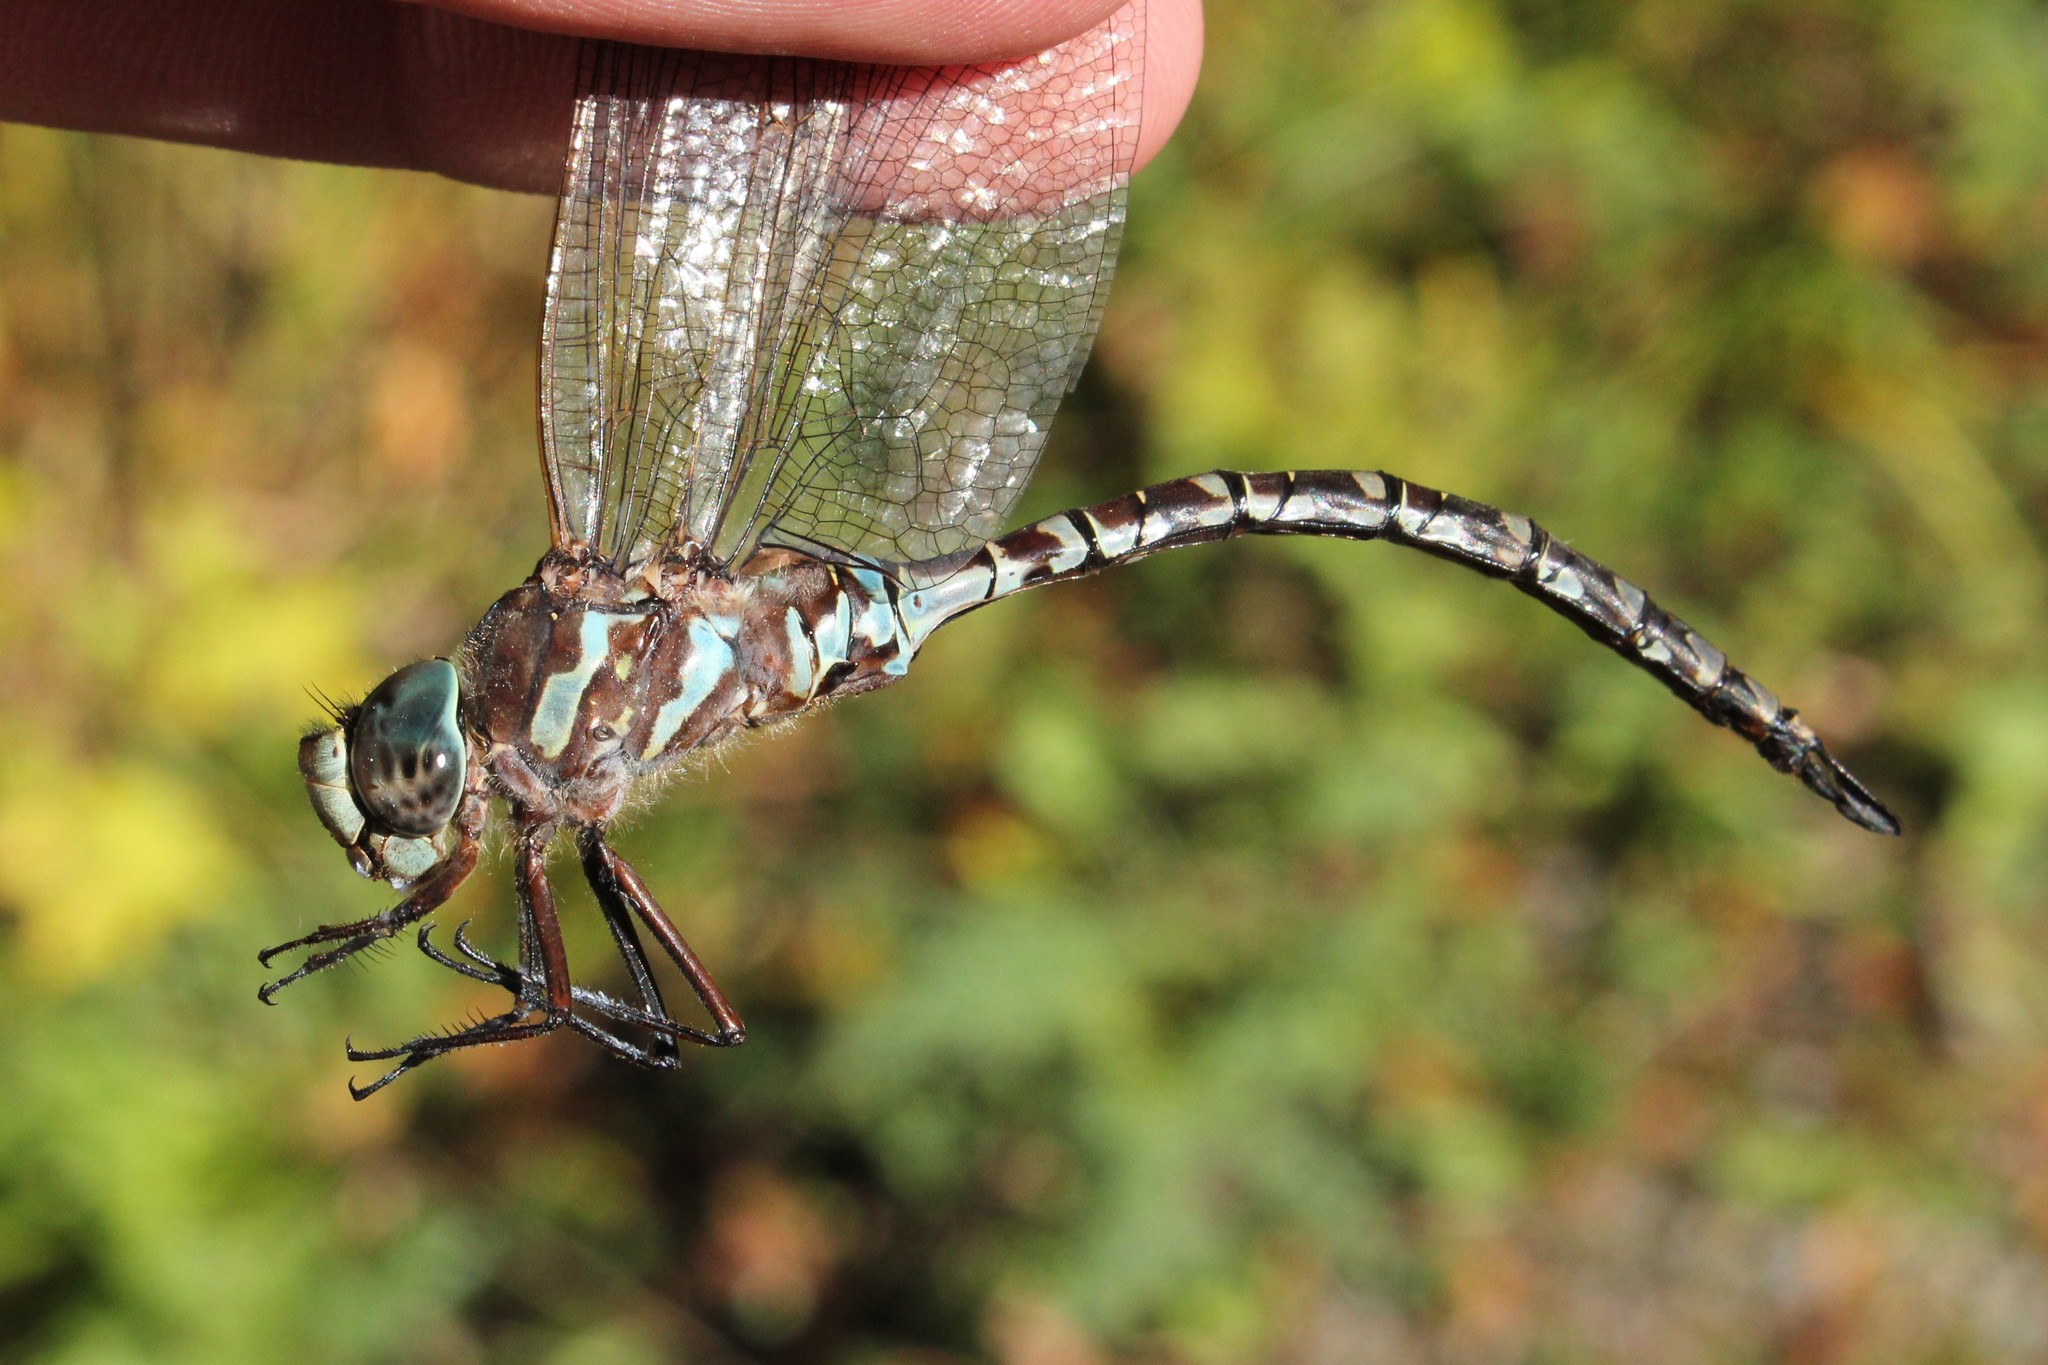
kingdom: Animalia
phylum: Arthropoda
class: Insecta
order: Odonata
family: Aeshnidae
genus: Aeshna
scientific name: Aeshna canadensis
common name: Canada darner
